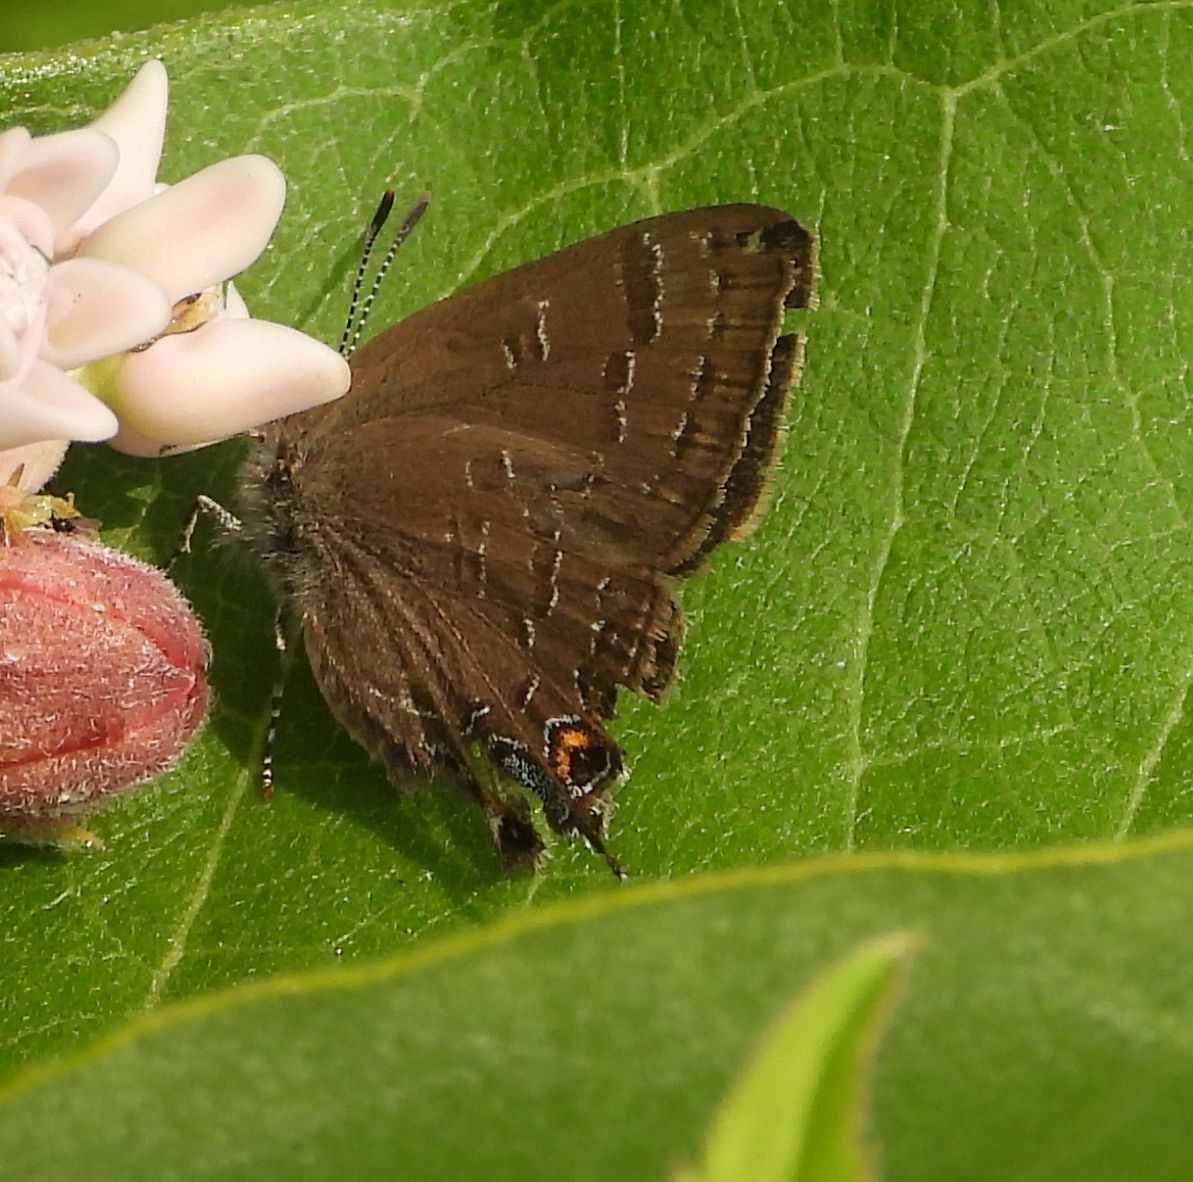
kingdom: Animalia
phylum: Arthropoda
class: Insecta
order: Lepidoptera
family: Lycaenidae
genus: Satyrium
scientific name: Satyrium calanus
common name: Banded hairstreak
